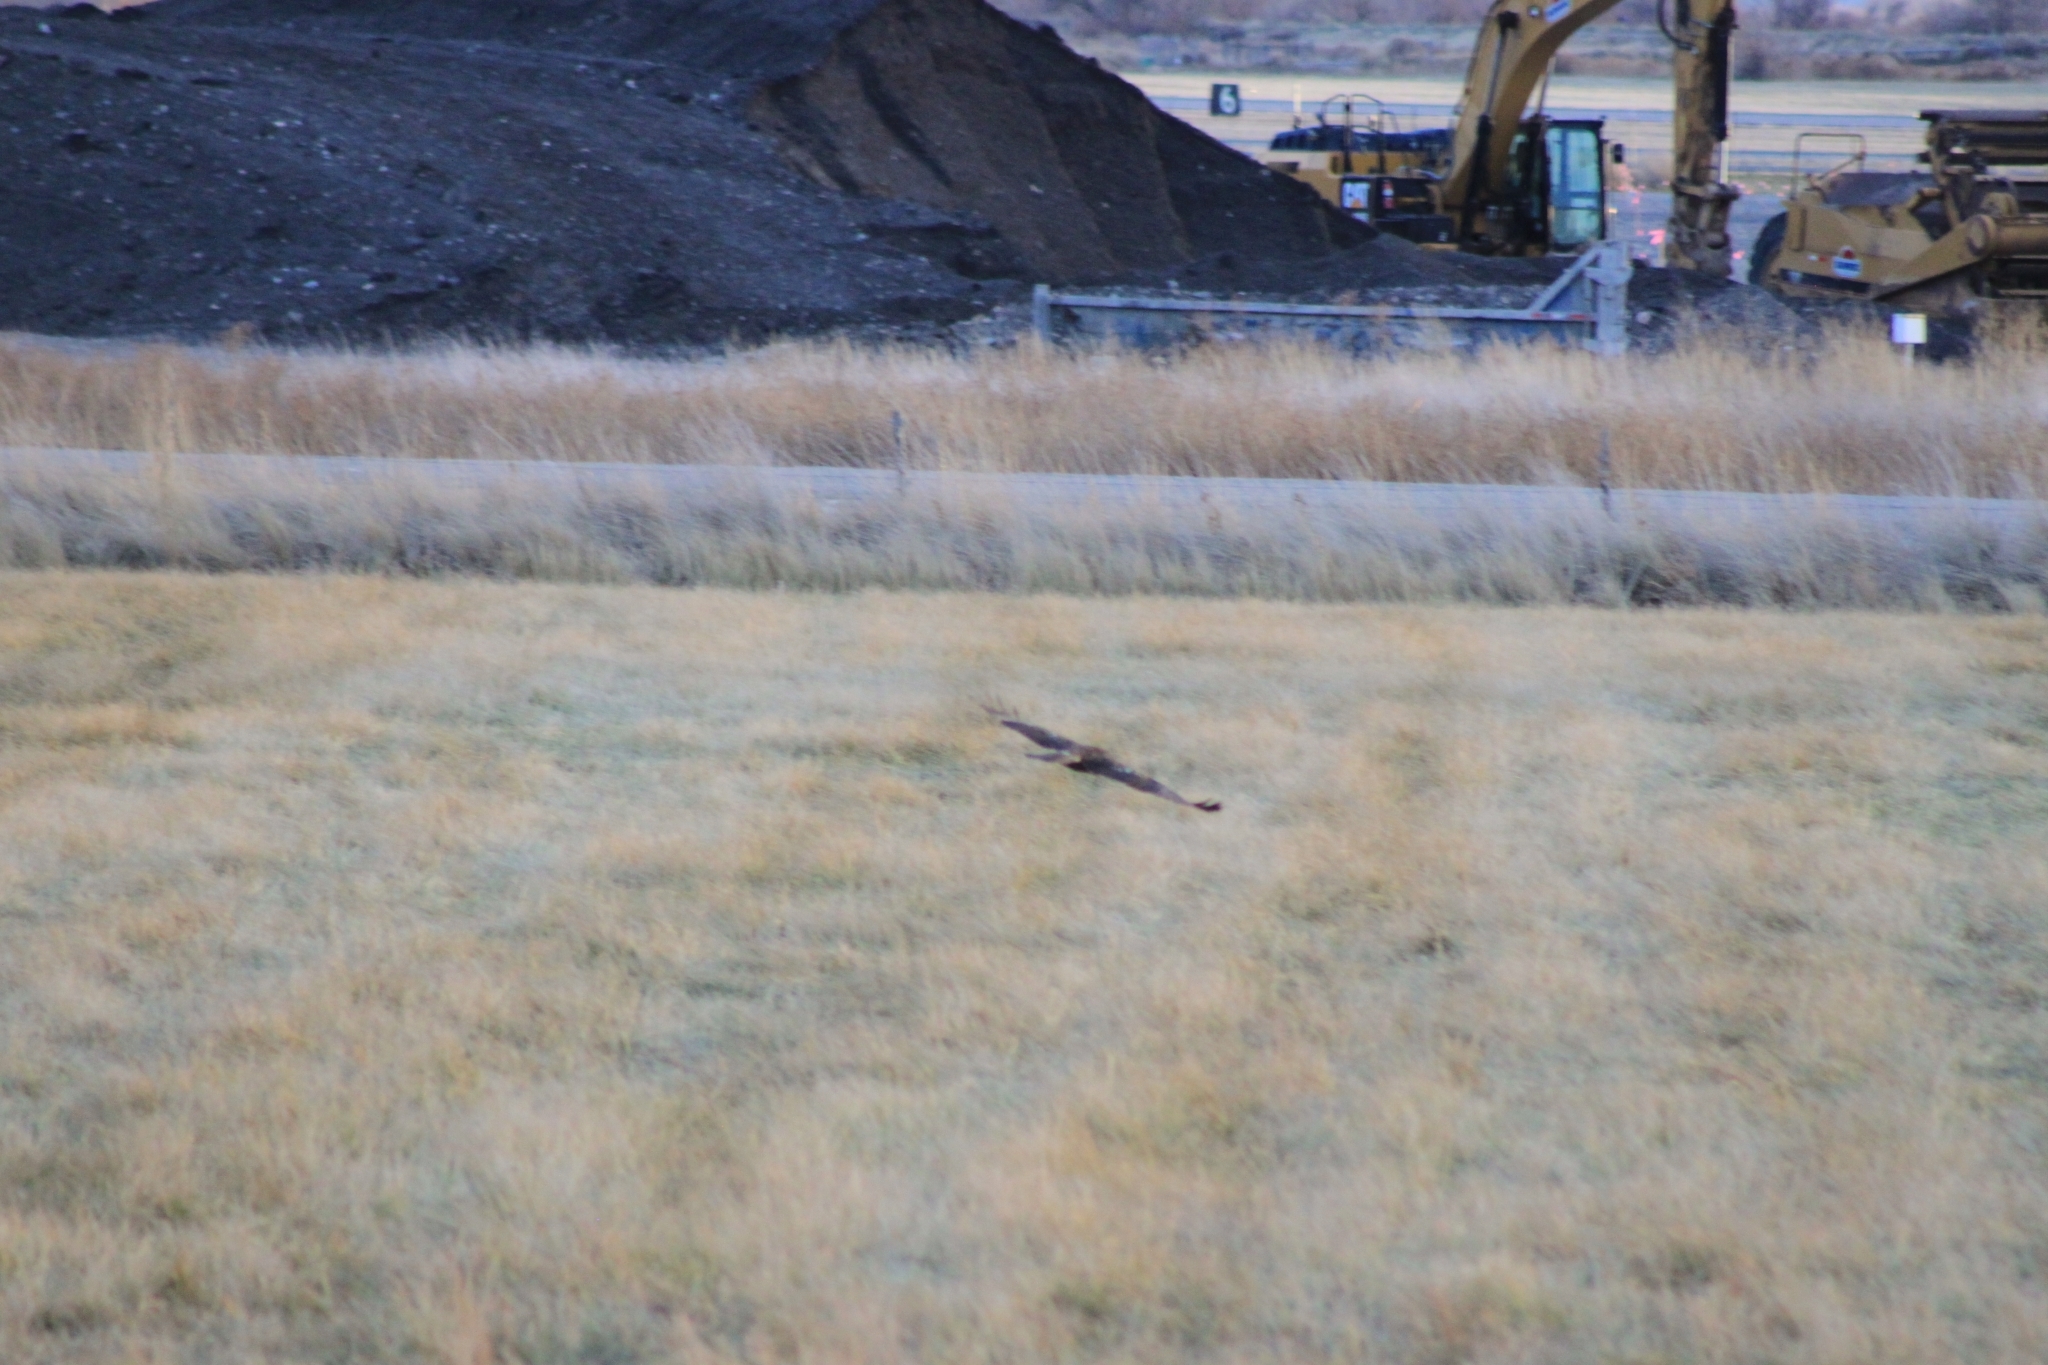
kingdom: Animalia
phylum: Chordata
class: Aves
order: Accipitriformes
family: Accipitridae
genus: Buteo
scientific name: Buteo jamaicensis
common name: Red-tailed hawk
